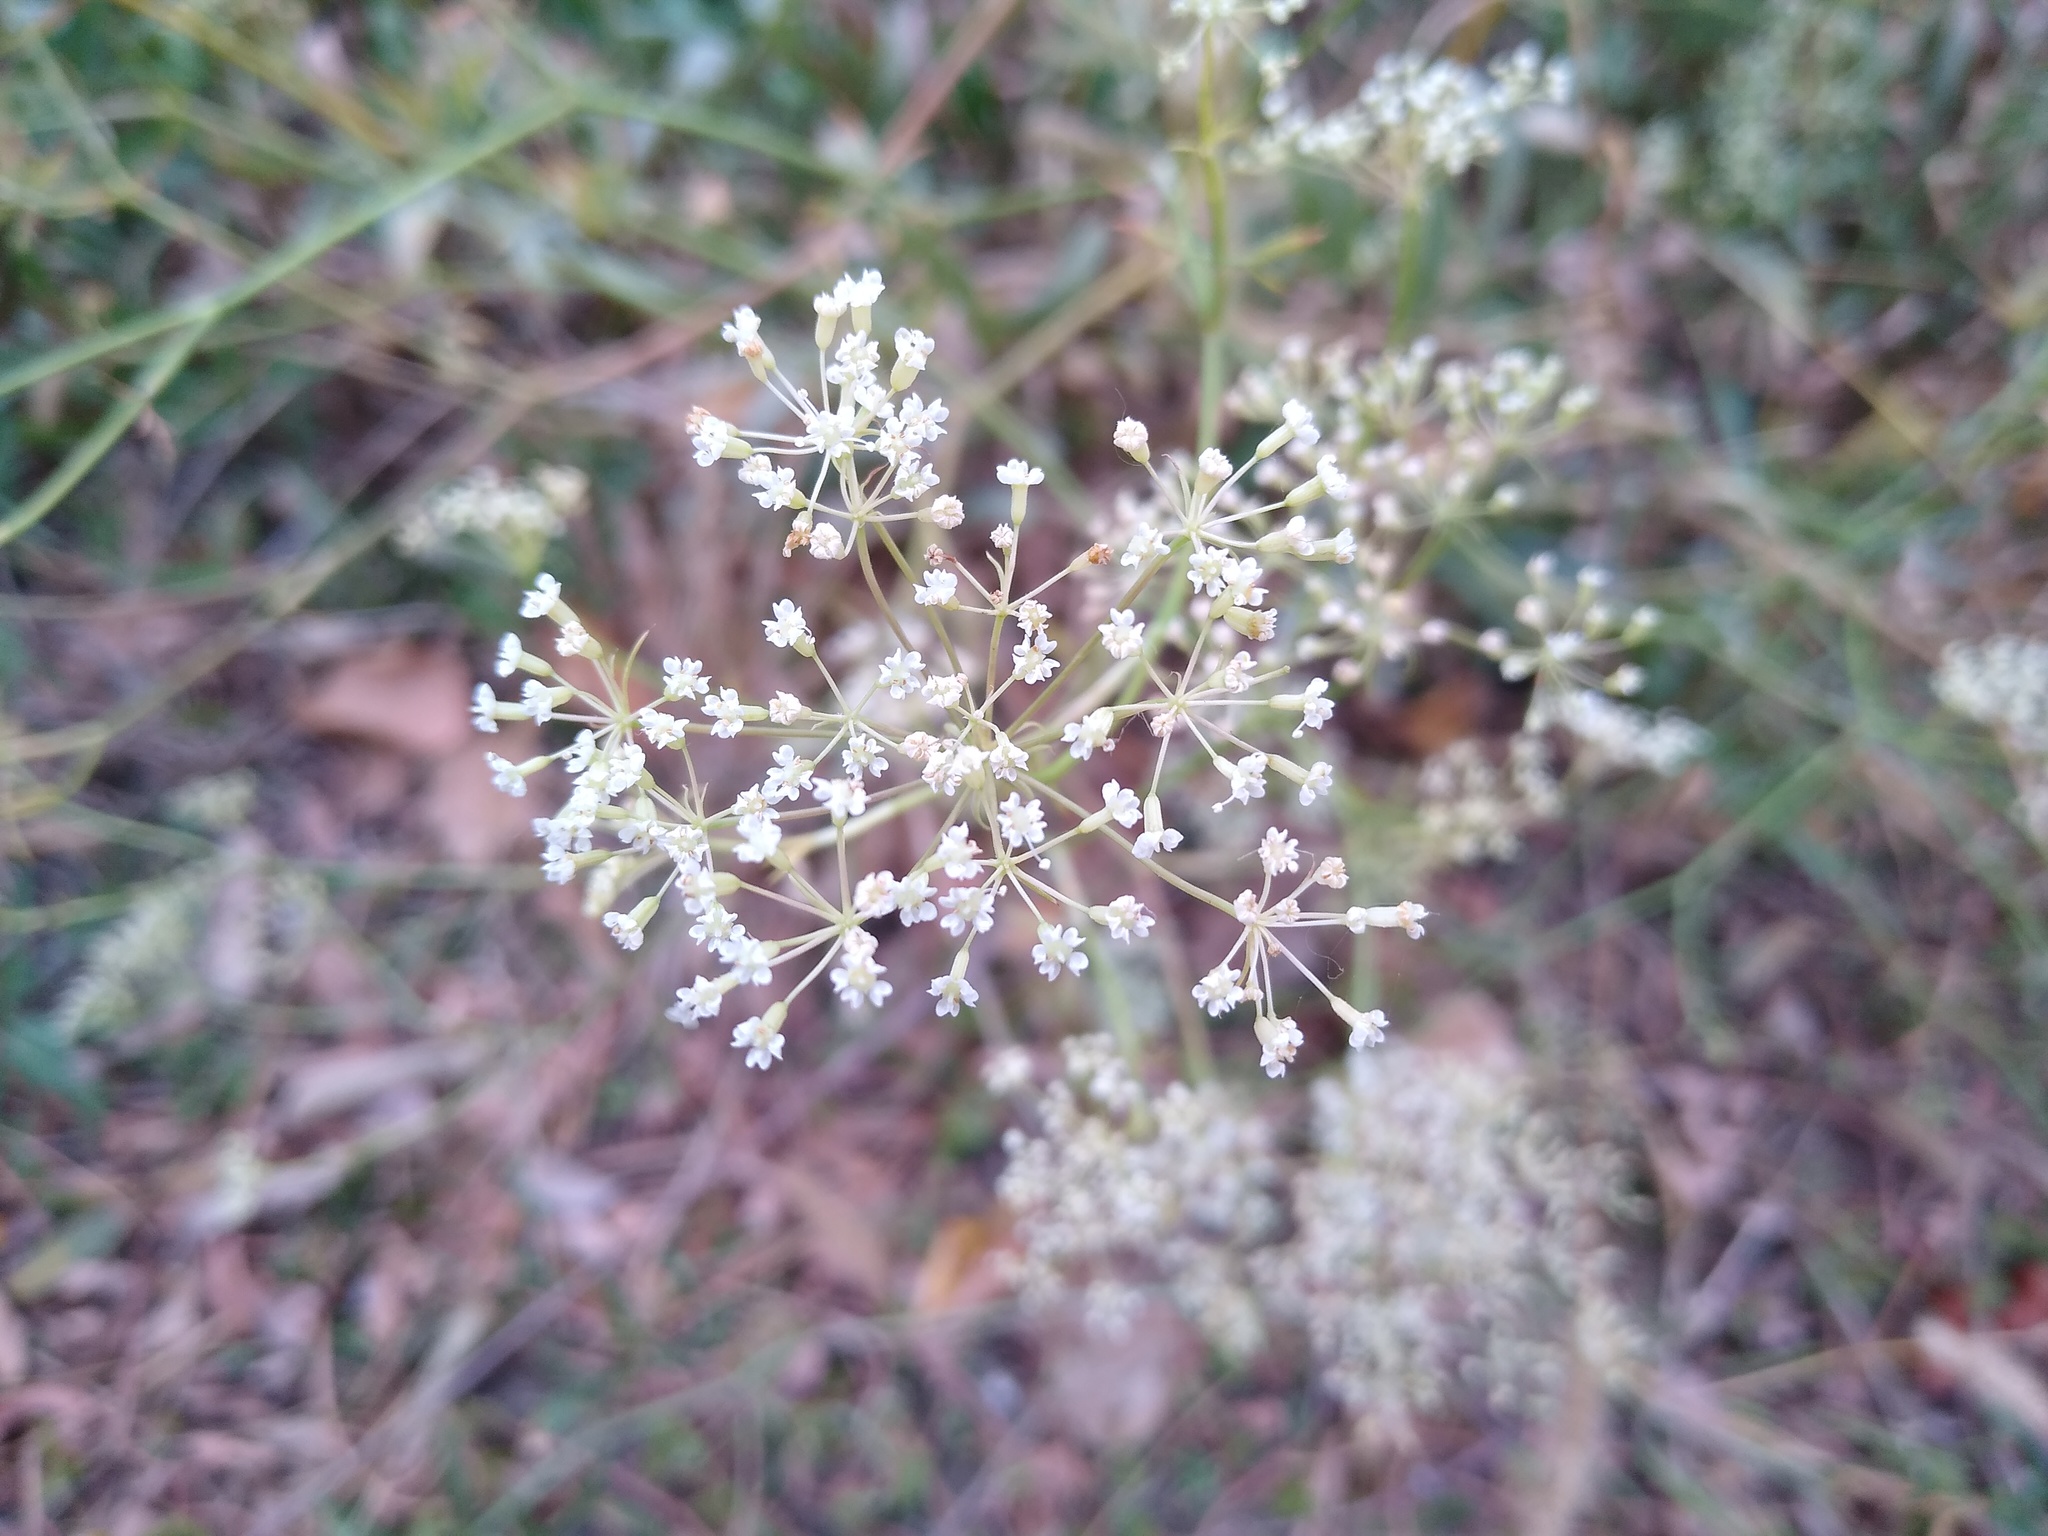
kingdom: Plantae
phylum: Tracheophyta
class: Magnoliopsida
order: Apiales
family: Apiaceae
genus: Falcaria
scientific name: Falcaria vulgaris
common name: Longleaf
